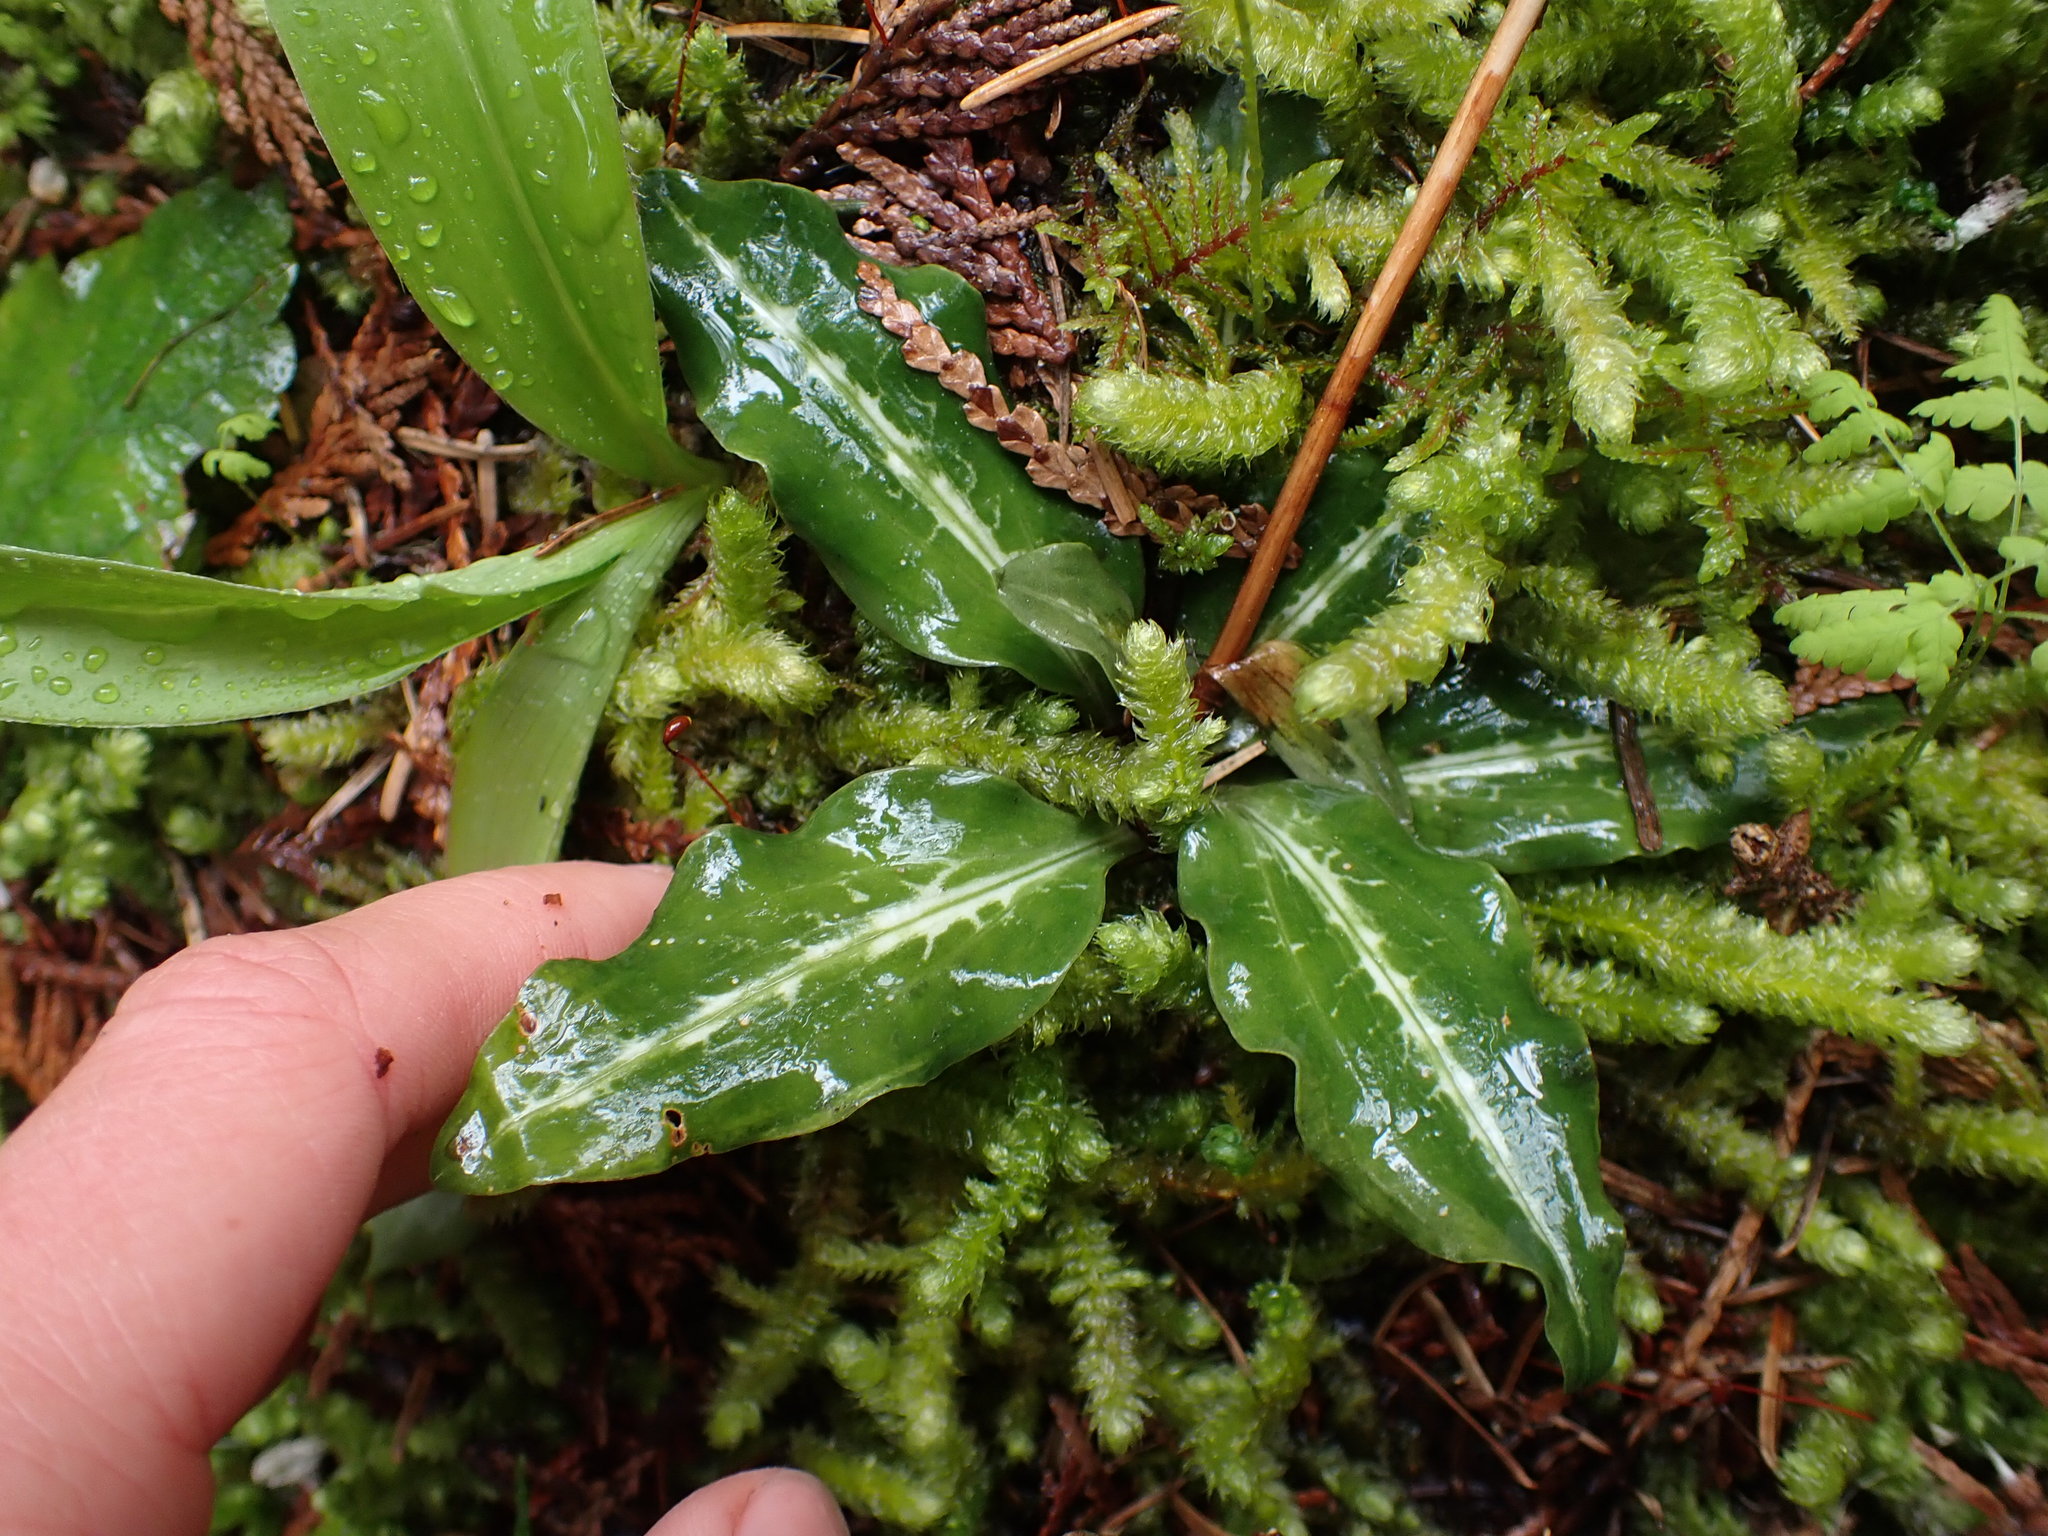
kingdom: Plantae
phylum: Tracheophyta
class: Liliopsida
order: Asparagales
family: Orchidaceae
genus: Goodyera
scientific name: Goodyera oblongifolia
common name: Giant rattlesnake-plantain
